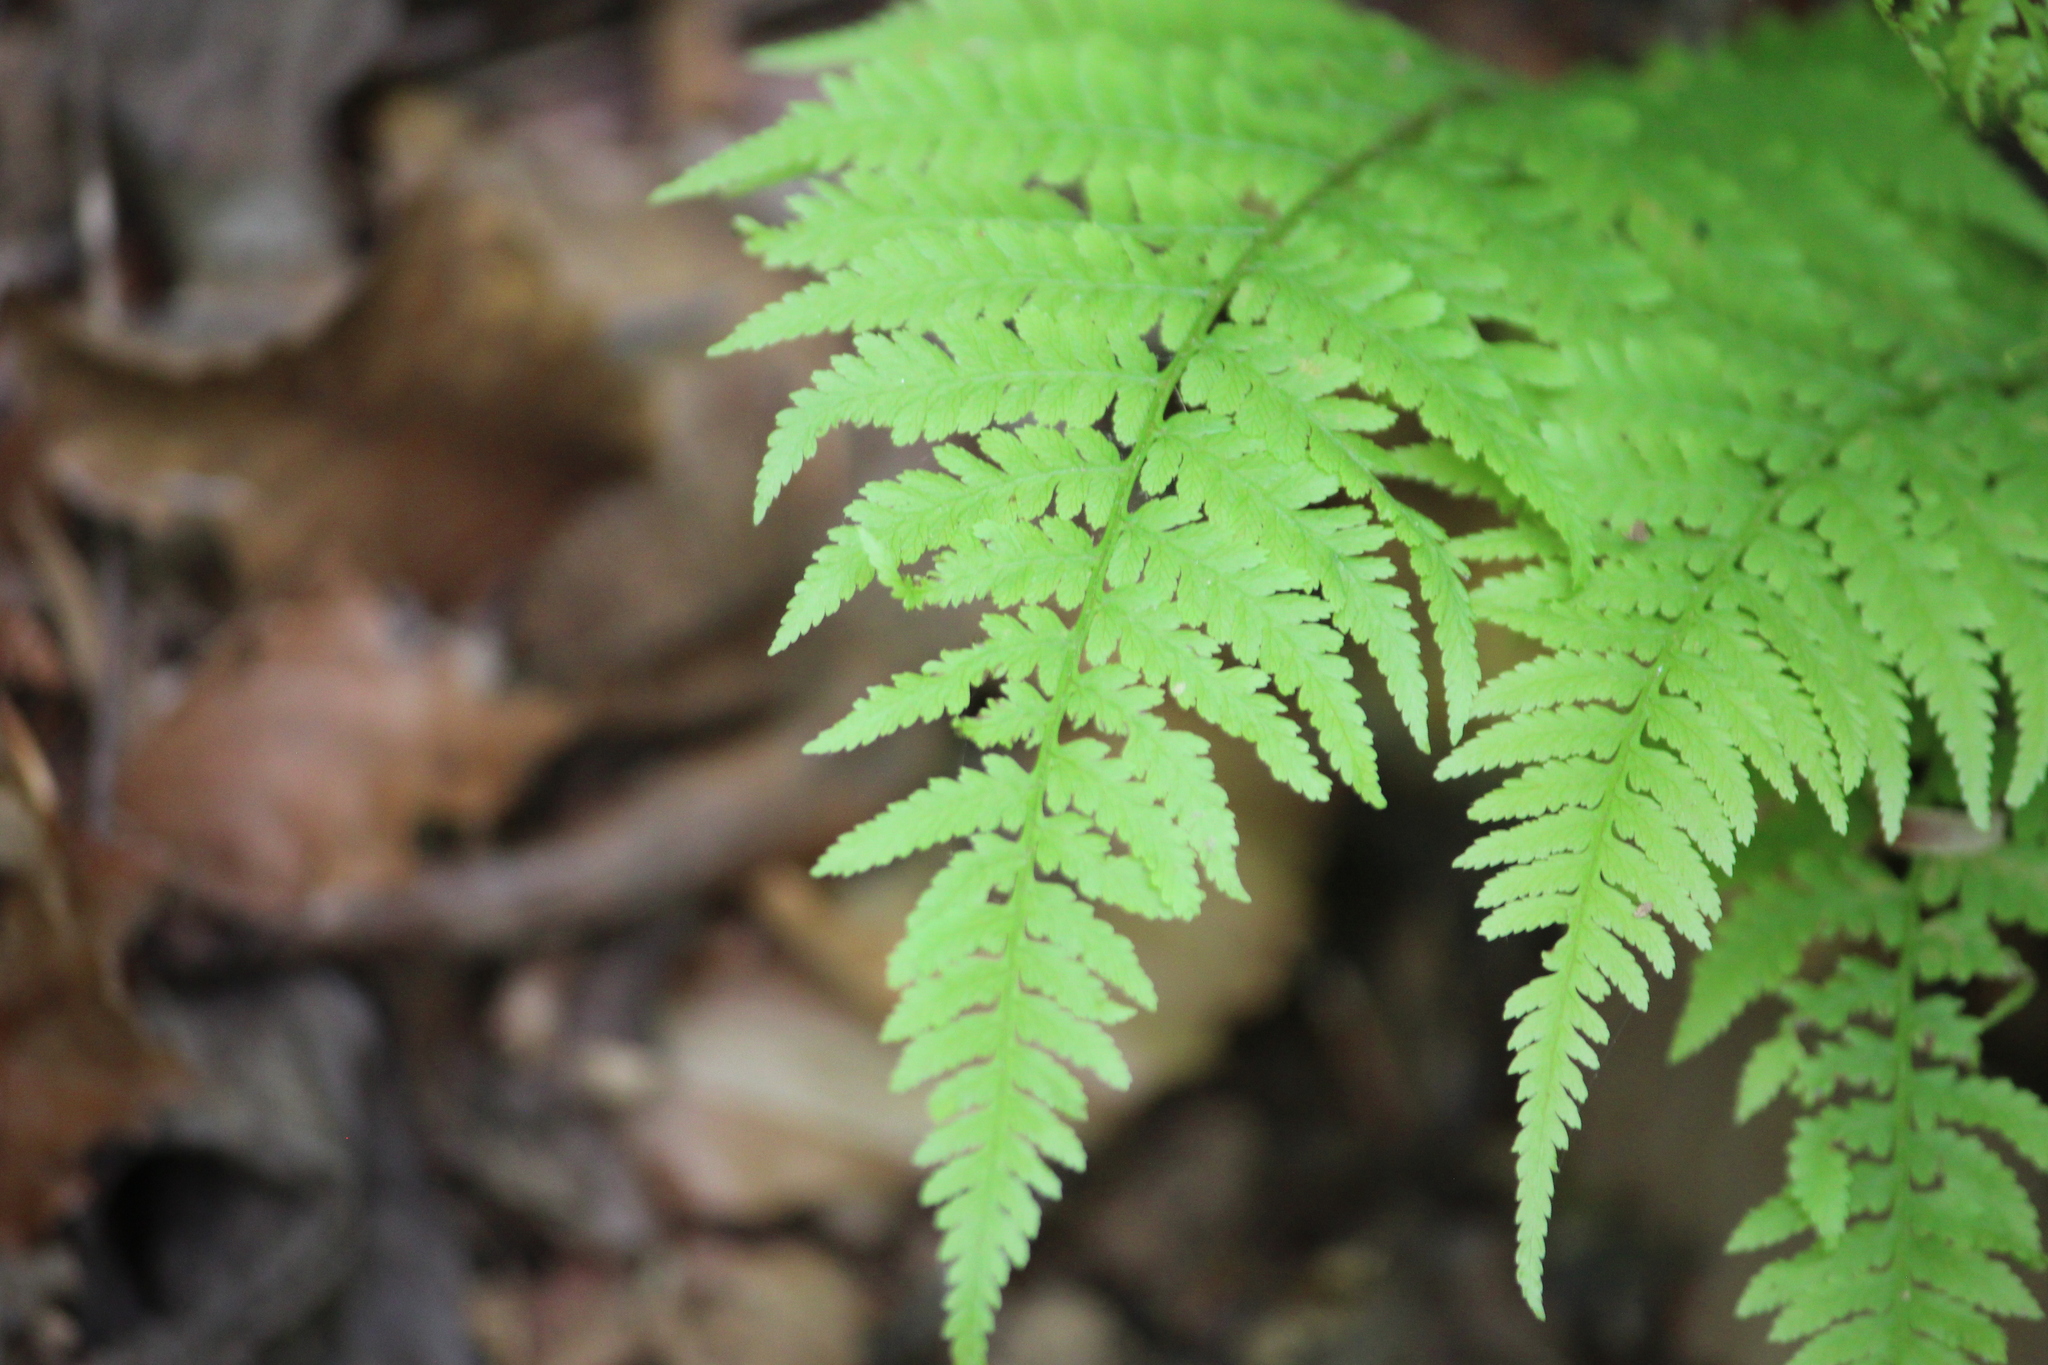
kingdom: Plantae
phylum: Tracheophyta
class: Polypodiopsida
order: Polypodiales
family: Athyriaceae
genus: Athyrium
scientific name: Athyrium asplenioides
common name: Southern lady fern
